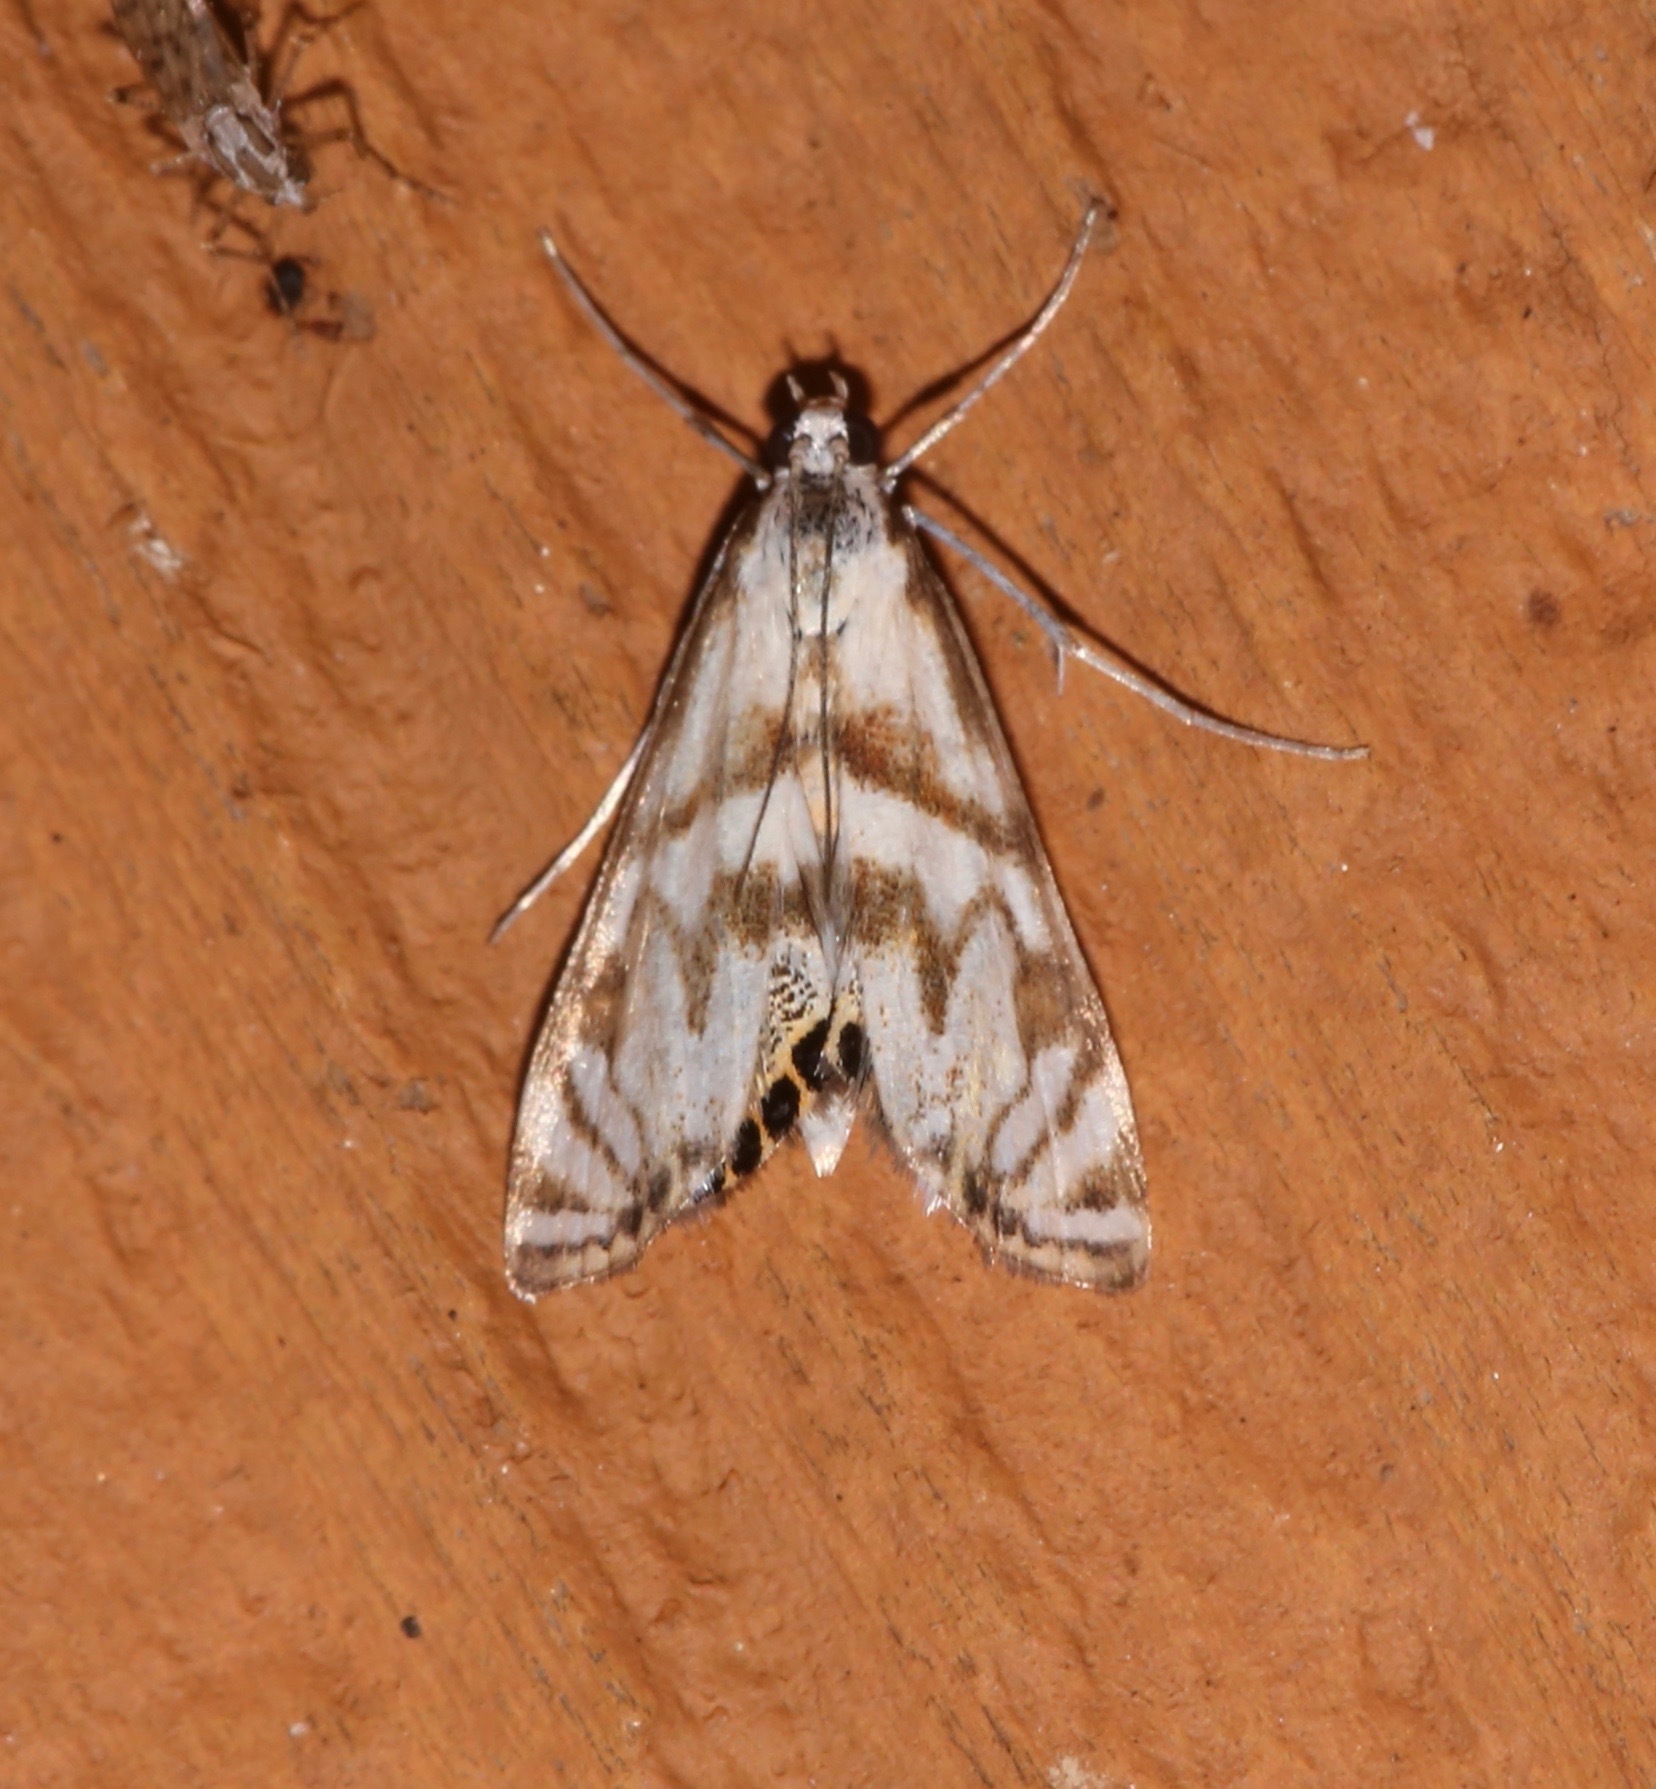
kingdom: Animalia
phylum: Arthropoda
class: Insecta
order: Lepidoptera
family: Crambidae
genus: Neocataclysta
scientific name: Neocataclysta magnificalis
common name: Scrollwork pyralid moth
